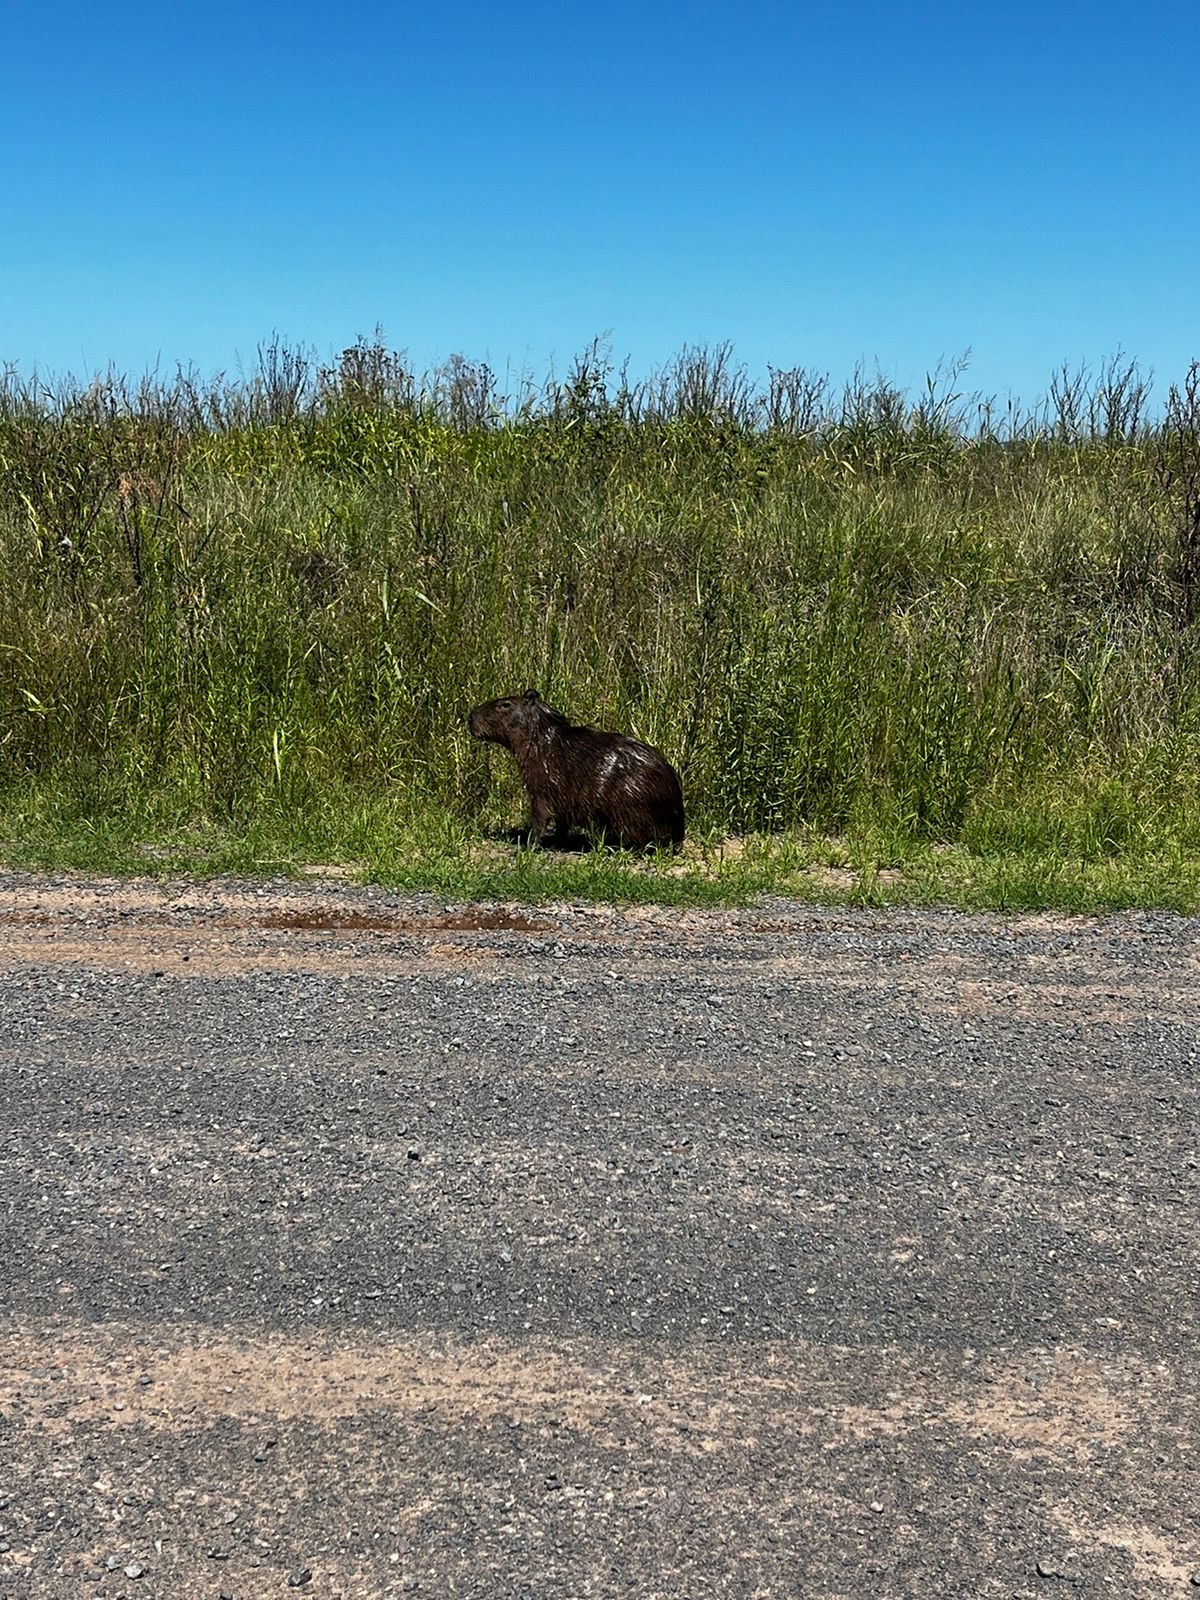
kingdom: Animalia
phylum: Chordata
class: Mammalia
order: Rodentia
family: Caviidae
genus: Hydrochoerus
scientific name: Hydrochoerus hydrochaeris
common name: Capybara
